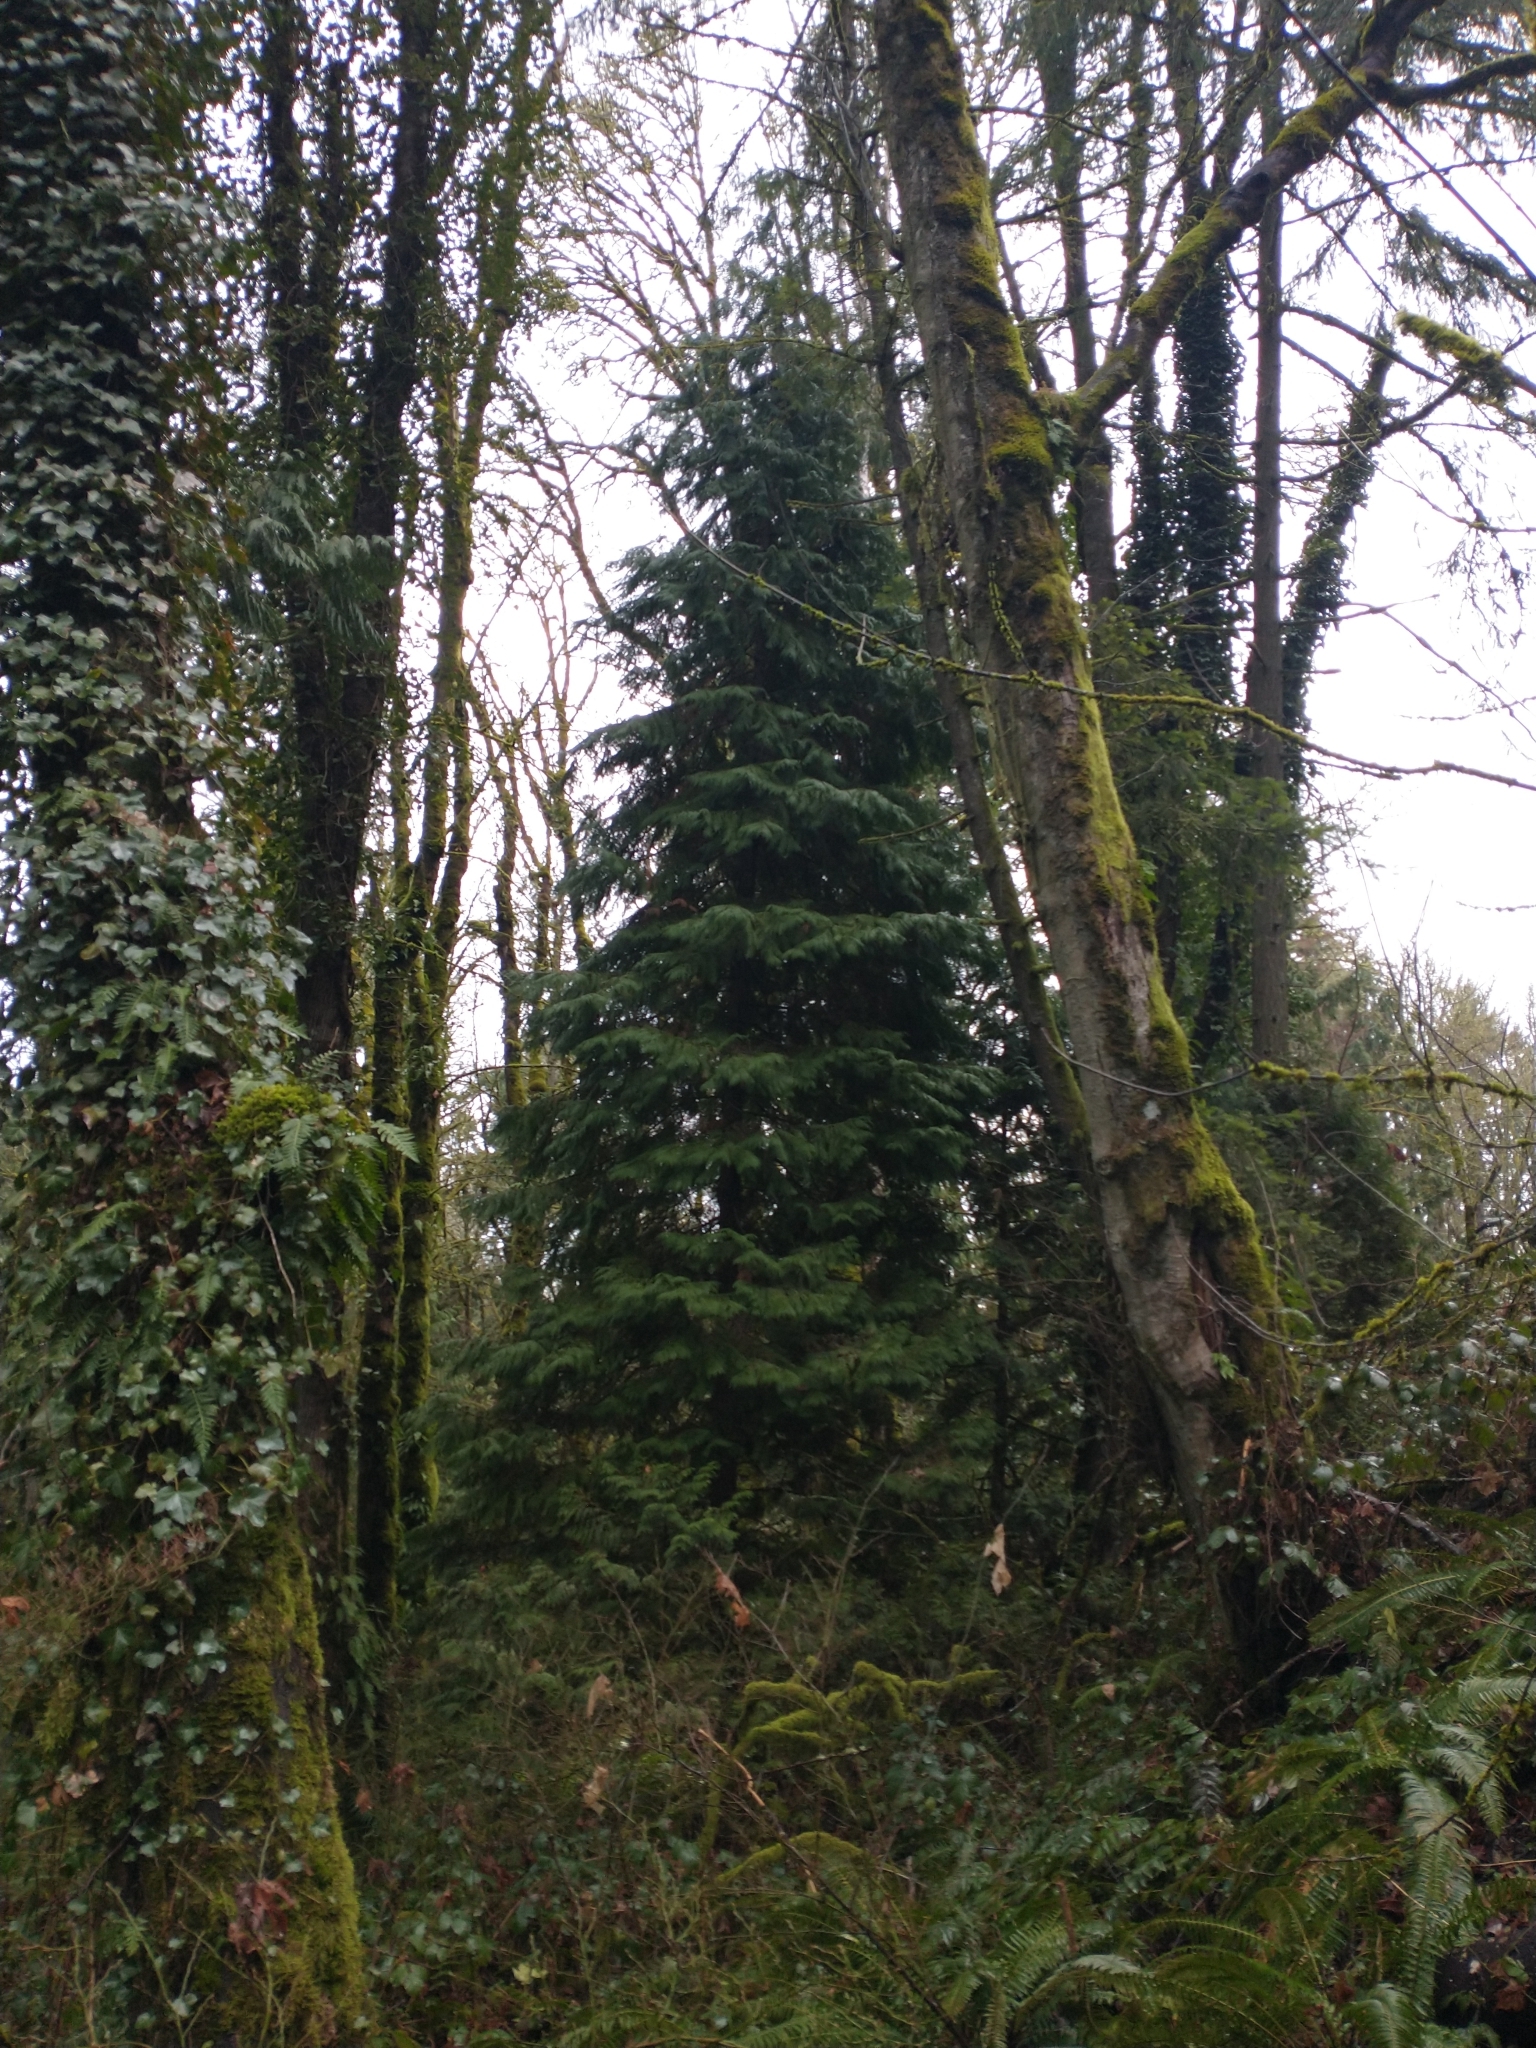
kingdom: Plantae
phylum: Tracheophyta
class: Pinopsida
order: Pinales
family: Cupressaceae
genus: Chamaecyparis
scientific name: Chamaecyparis lawsoniana
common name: Lawson's cypress
